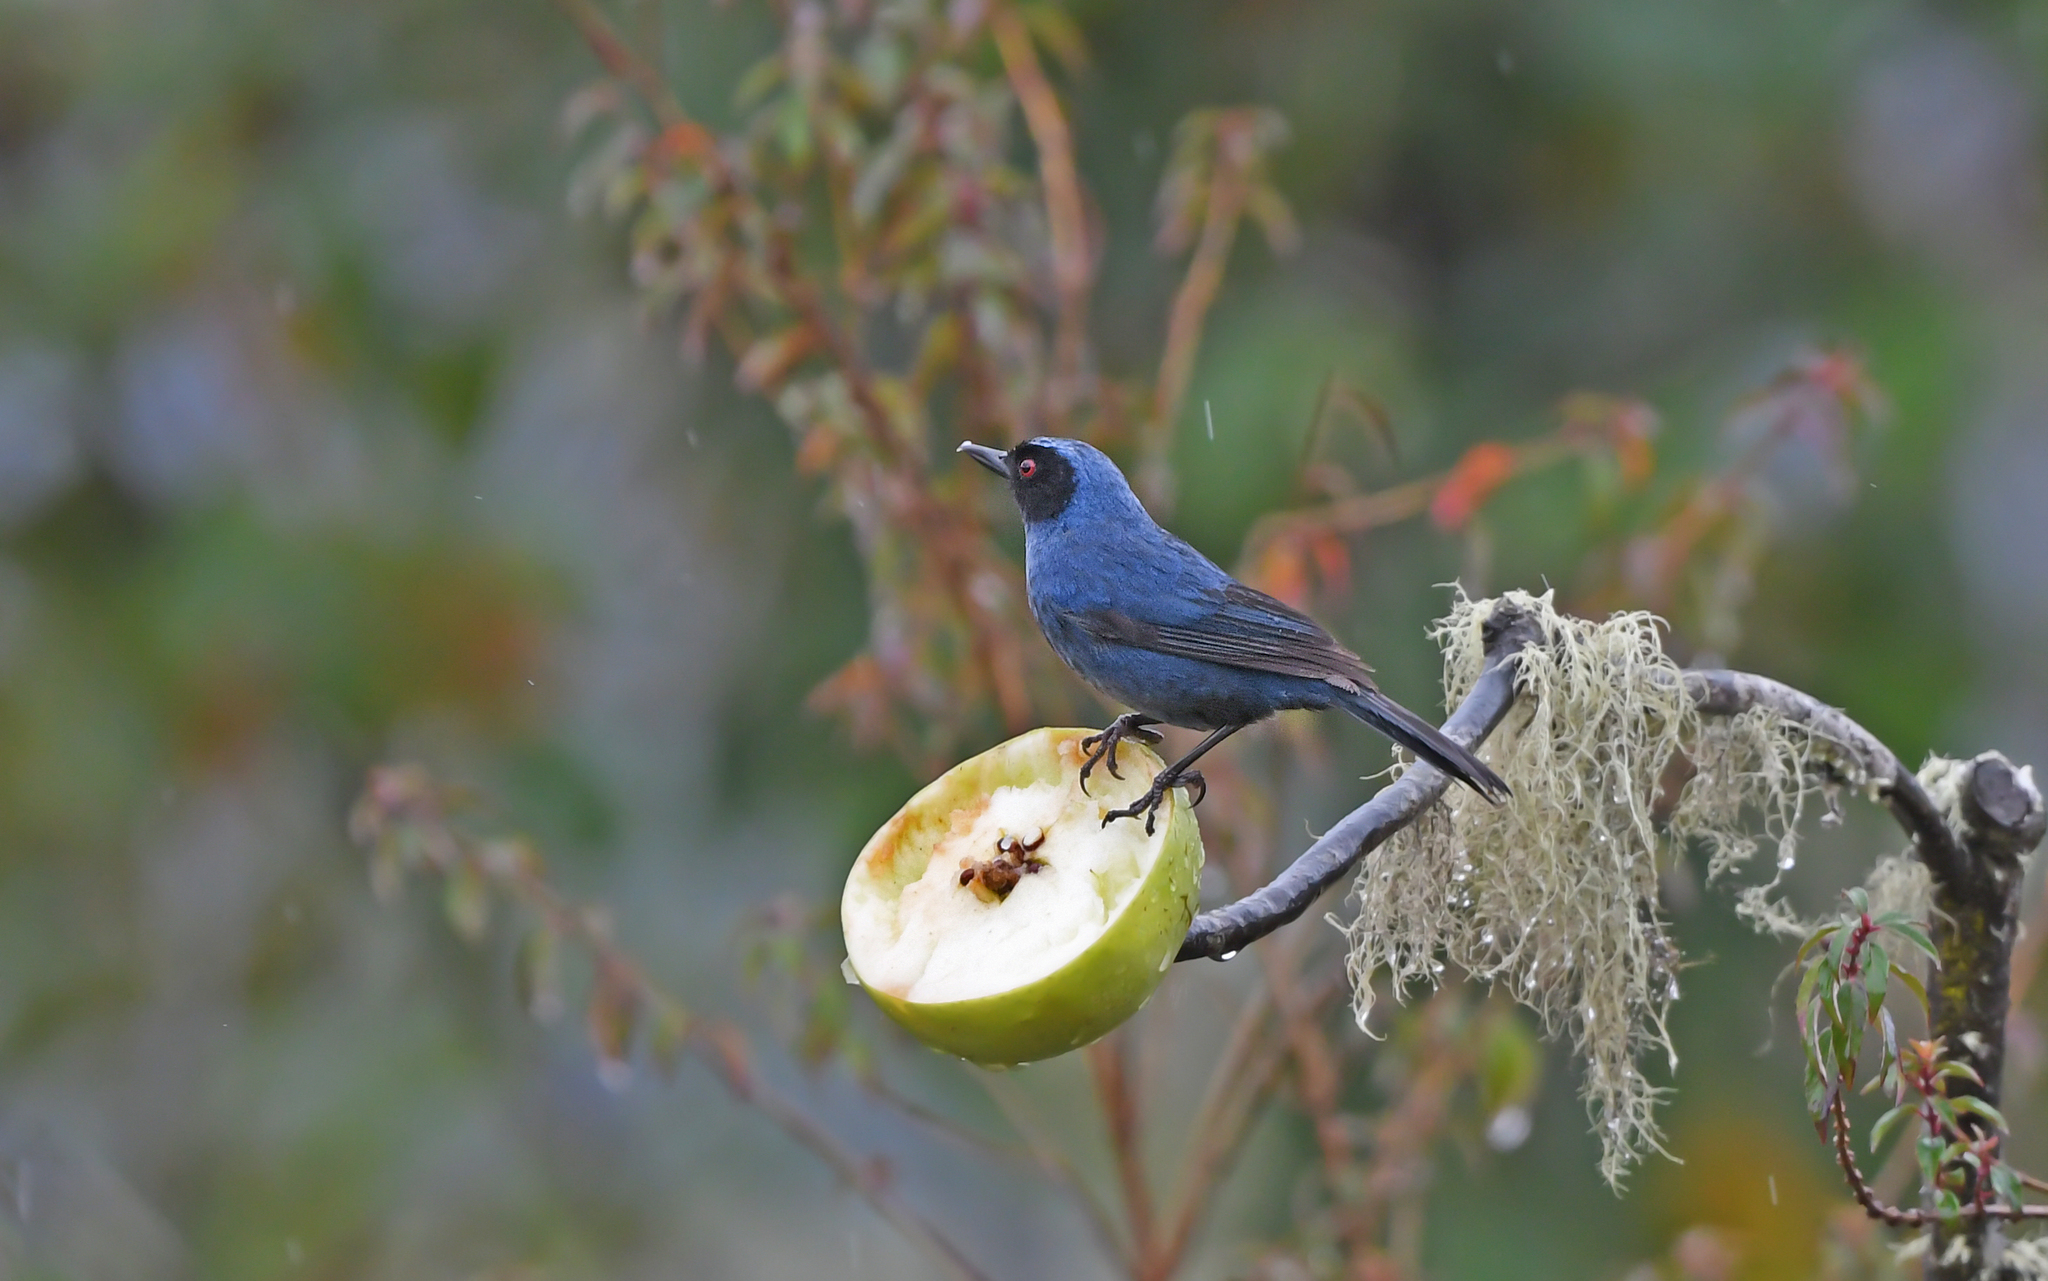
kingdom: Animalia
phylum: Chordata
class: Aves
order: Passeriformes
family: Thraupidae
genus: Diglossa
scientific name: Diglossa cyanea
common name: Masked flowerpiercer
